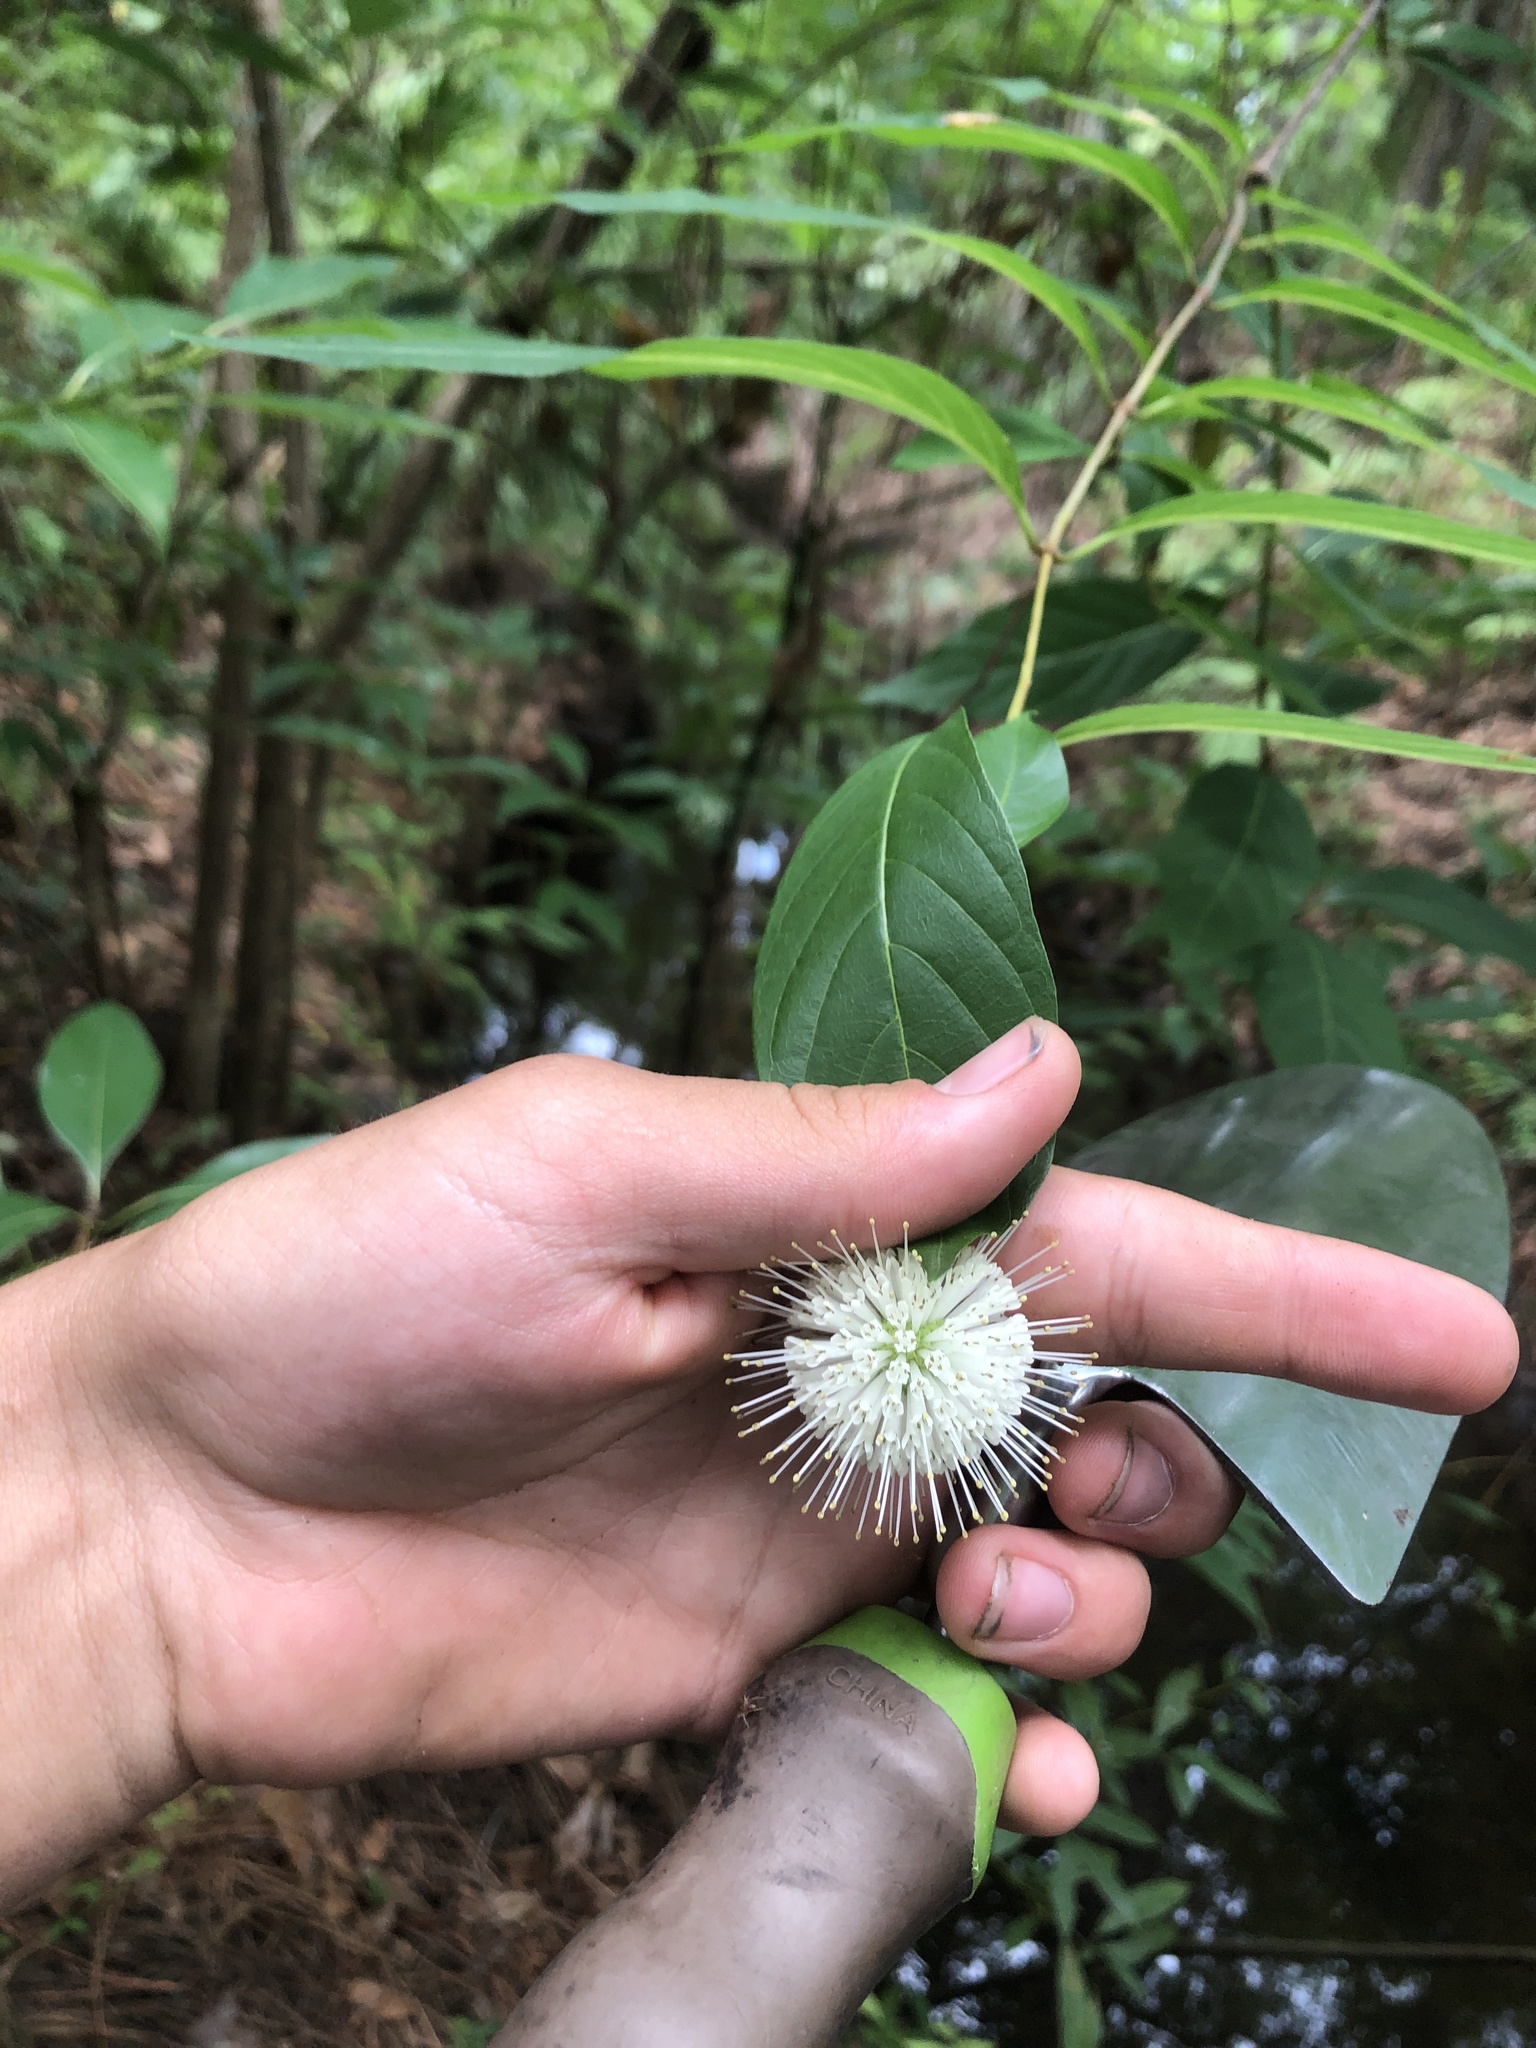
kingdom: Plantae
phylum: Tracheophyta
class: Magnoliopsida
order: Gentianales
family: Rubiaceae
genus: Cephalanthus
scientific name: Cephalanthus occidentalis
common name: Button-willow
